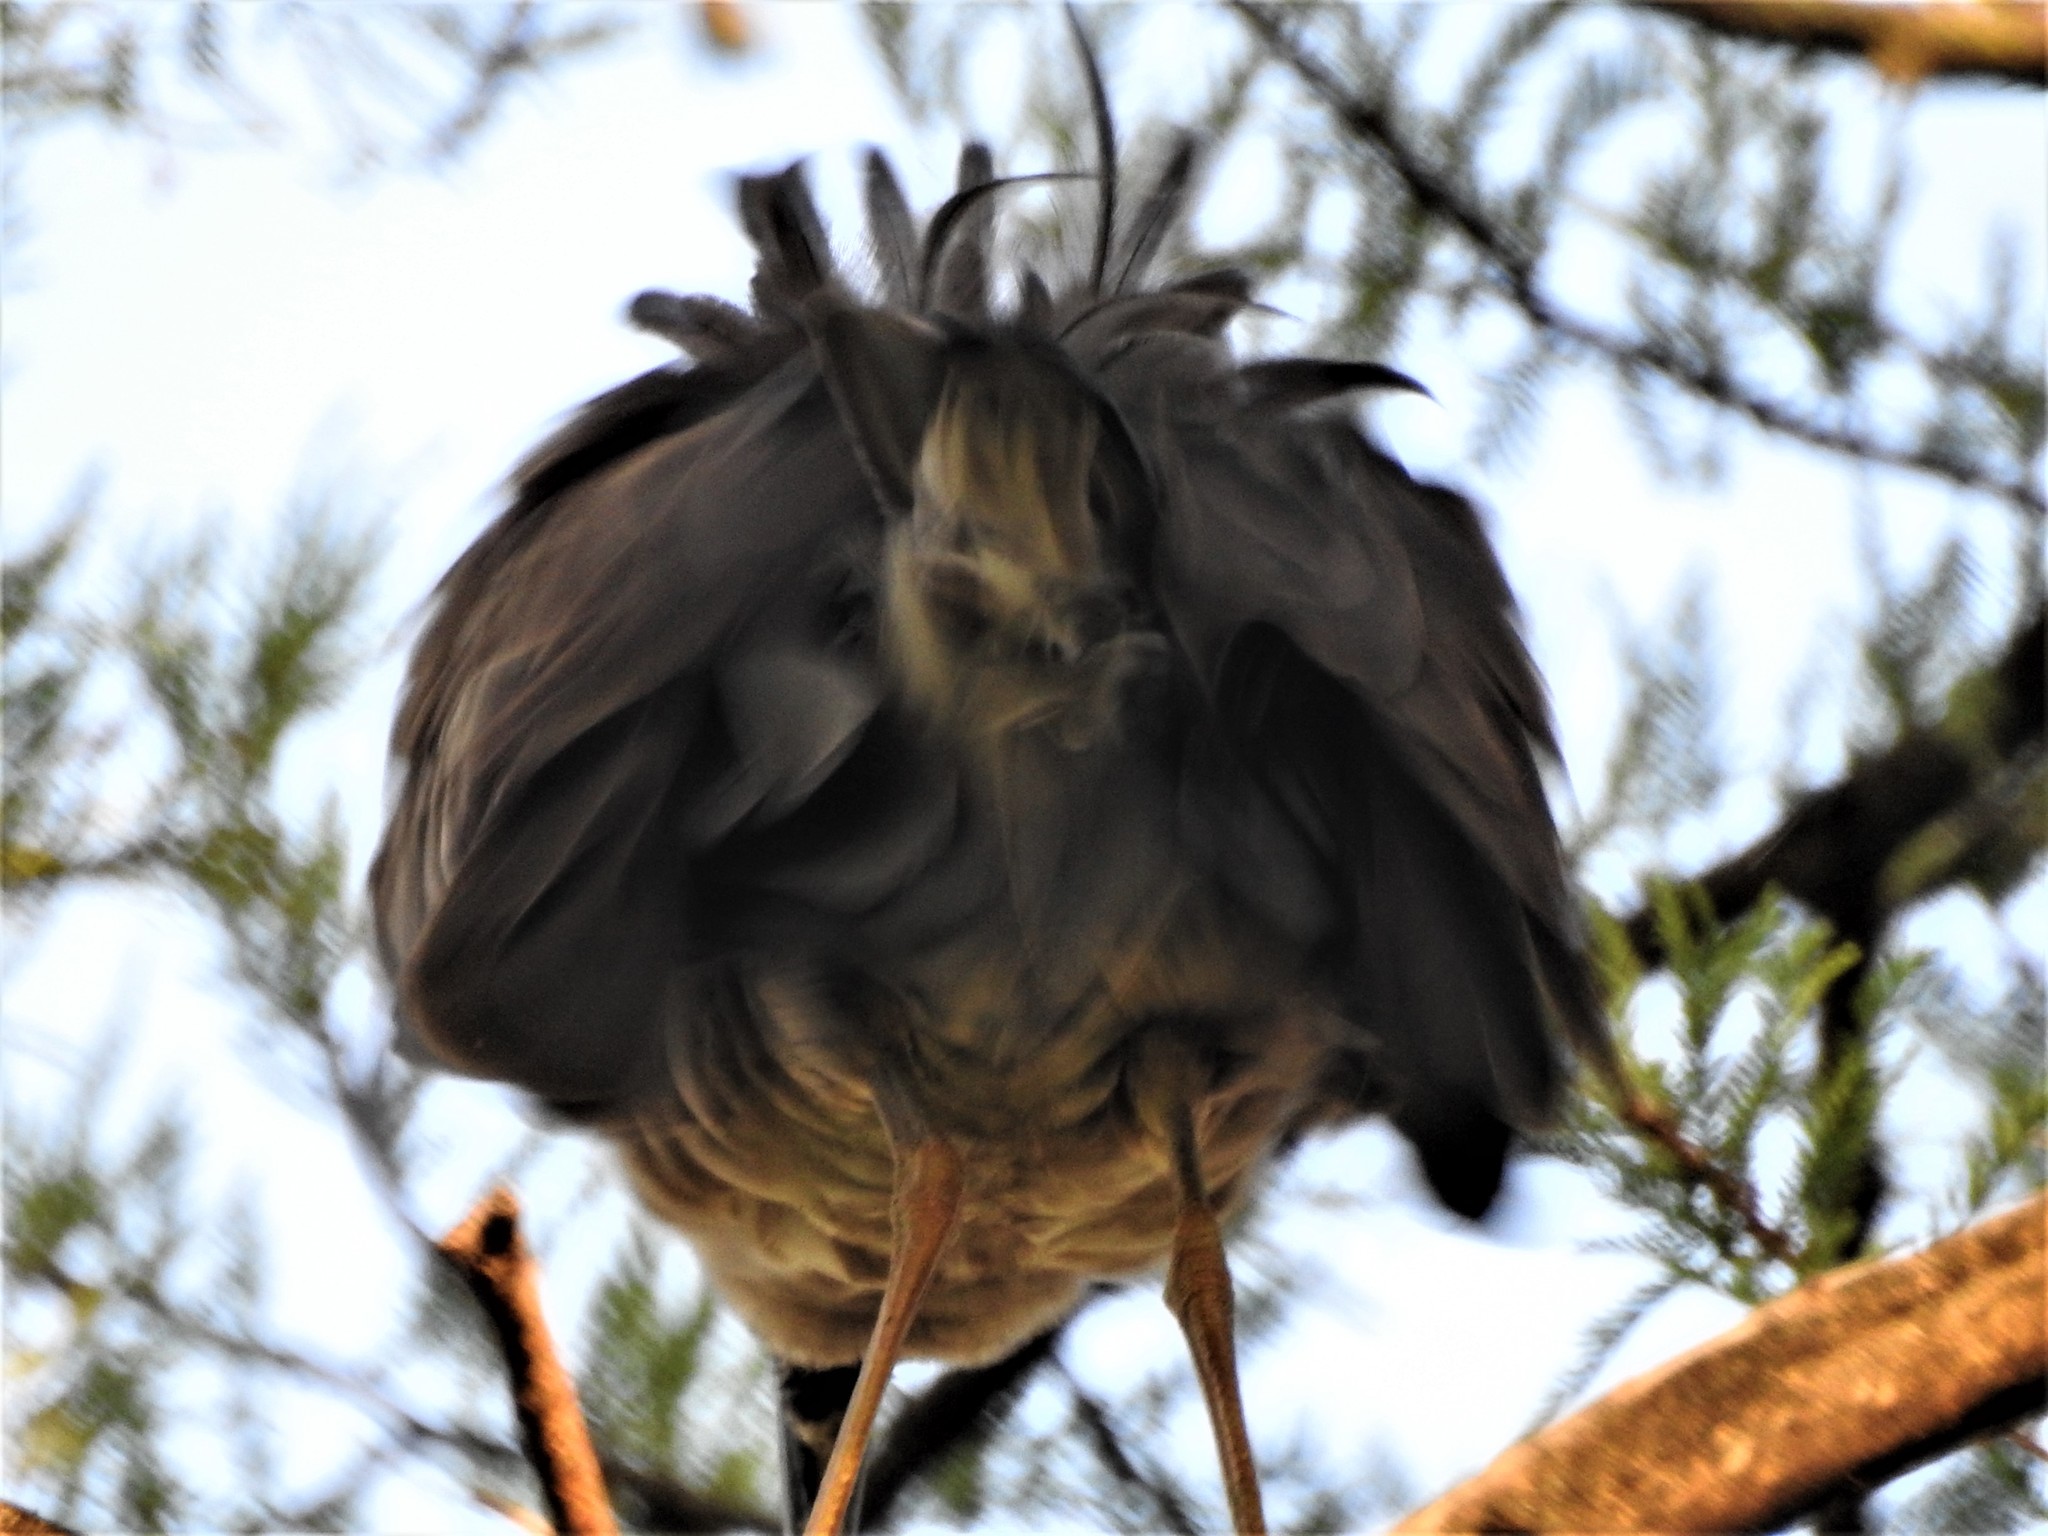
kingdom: Animalia
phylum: Chordata
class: Aves
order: Pelecaniformes
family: Ardeidae
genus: Nyctanassa
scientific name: Nyctanassa violacea
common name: Yellow-crowned night heron
